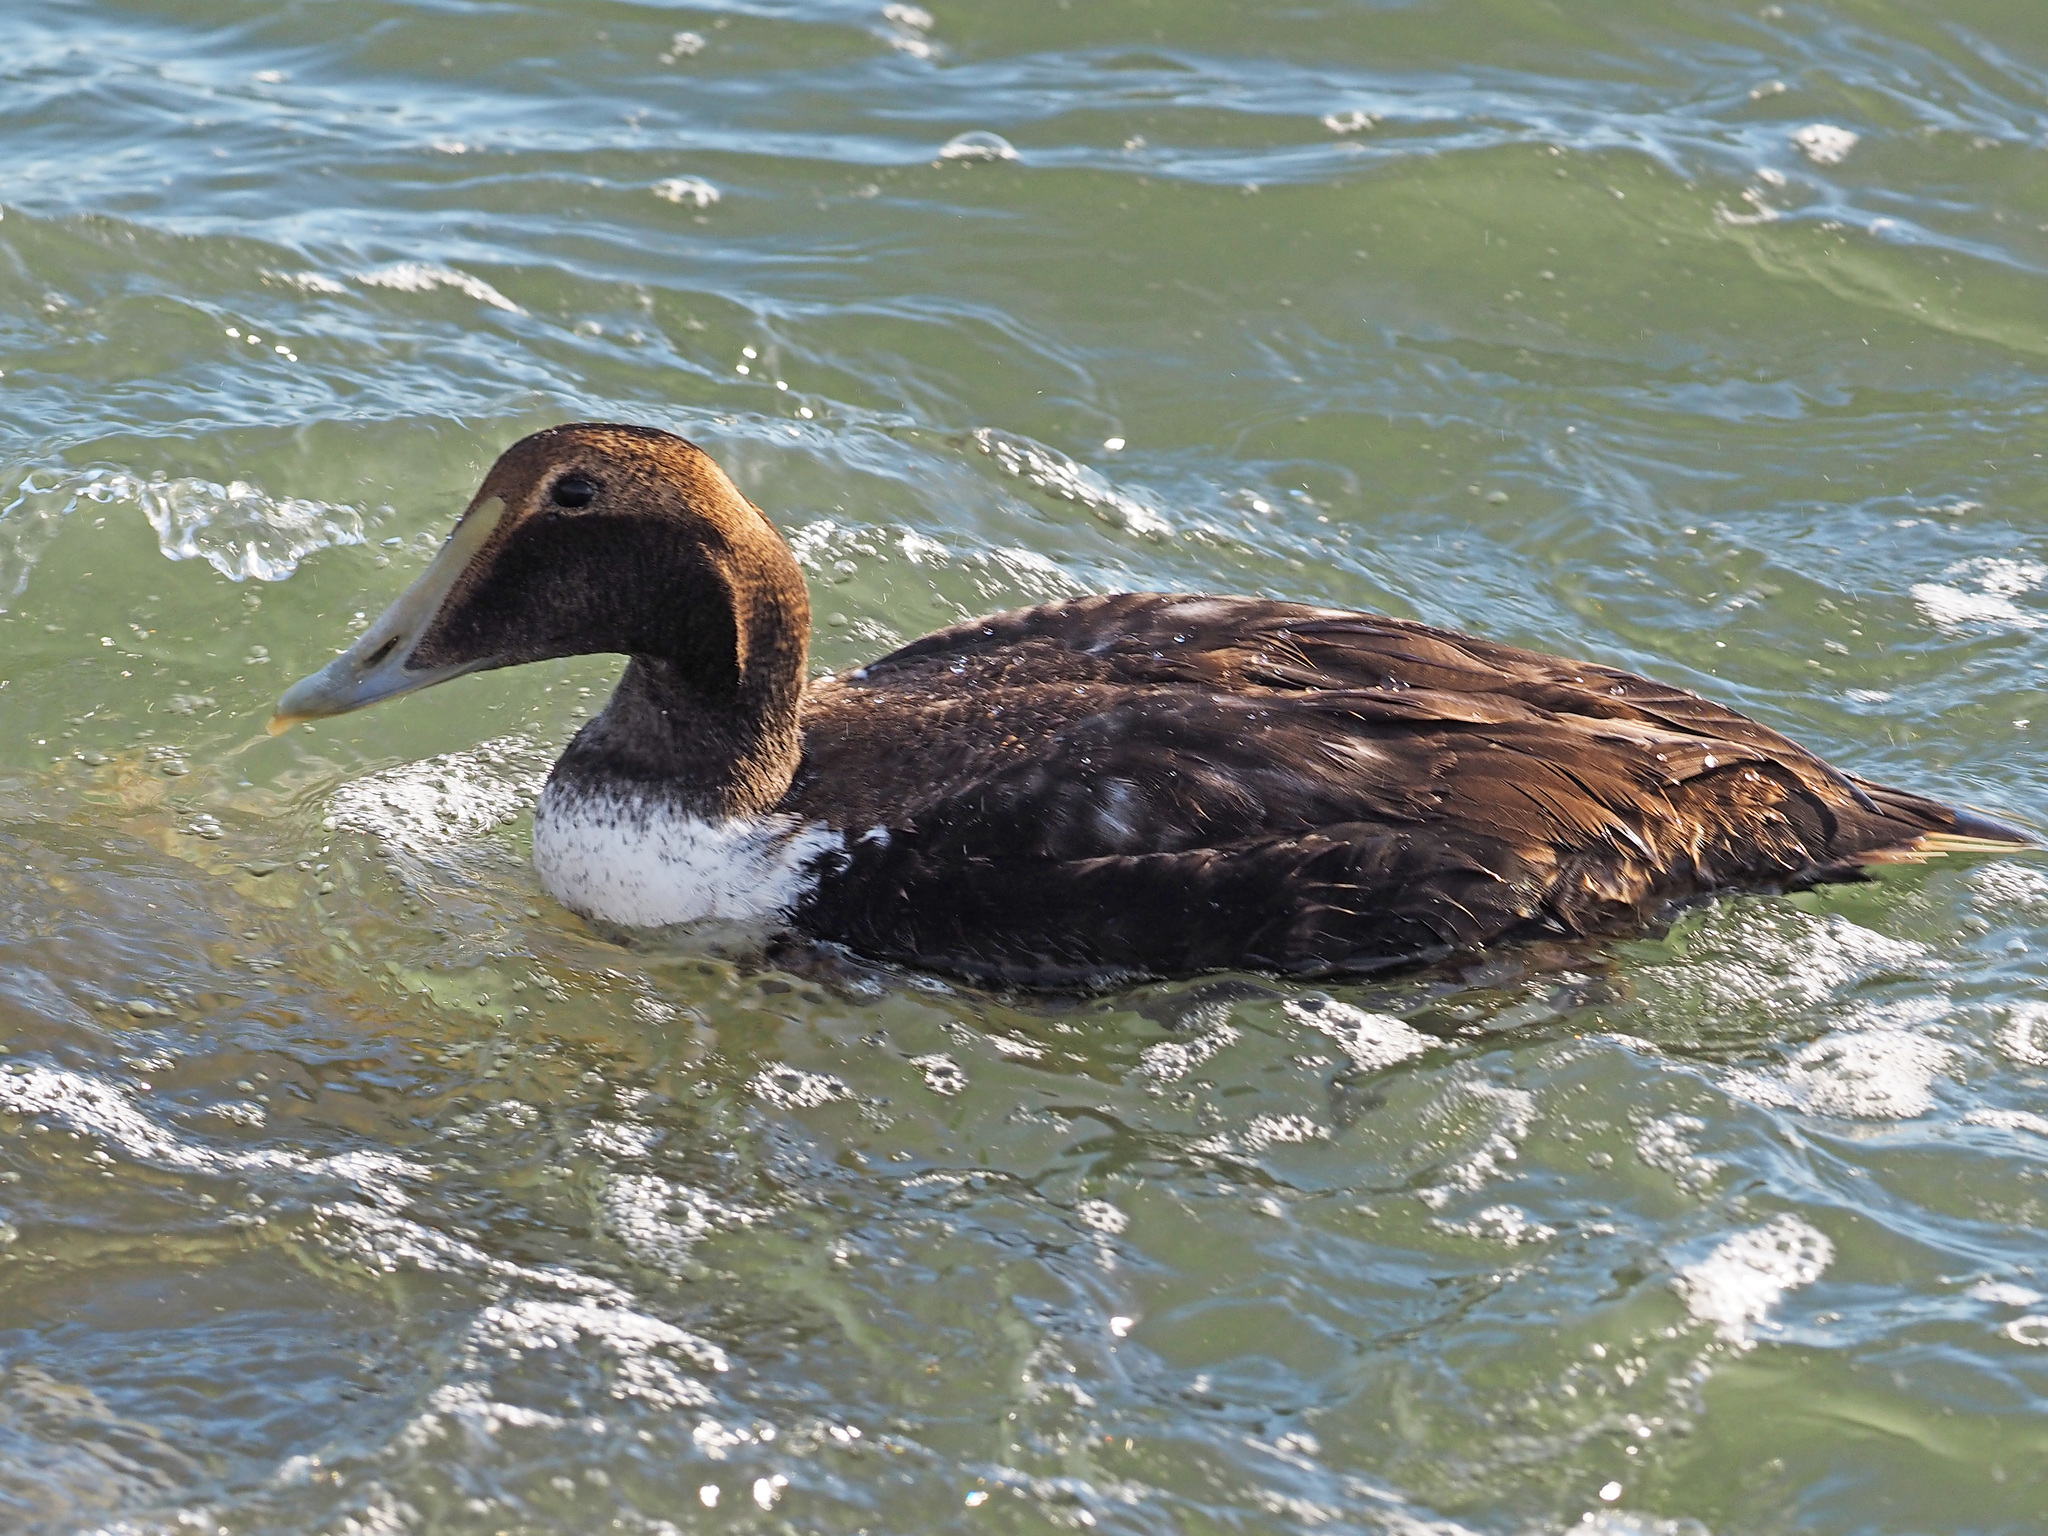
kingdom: Animalia
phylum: Chordata
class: Aves
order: Anseriformes
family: Anatidae
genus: Somateria
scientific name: Somateria mollissima
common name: Common eider
